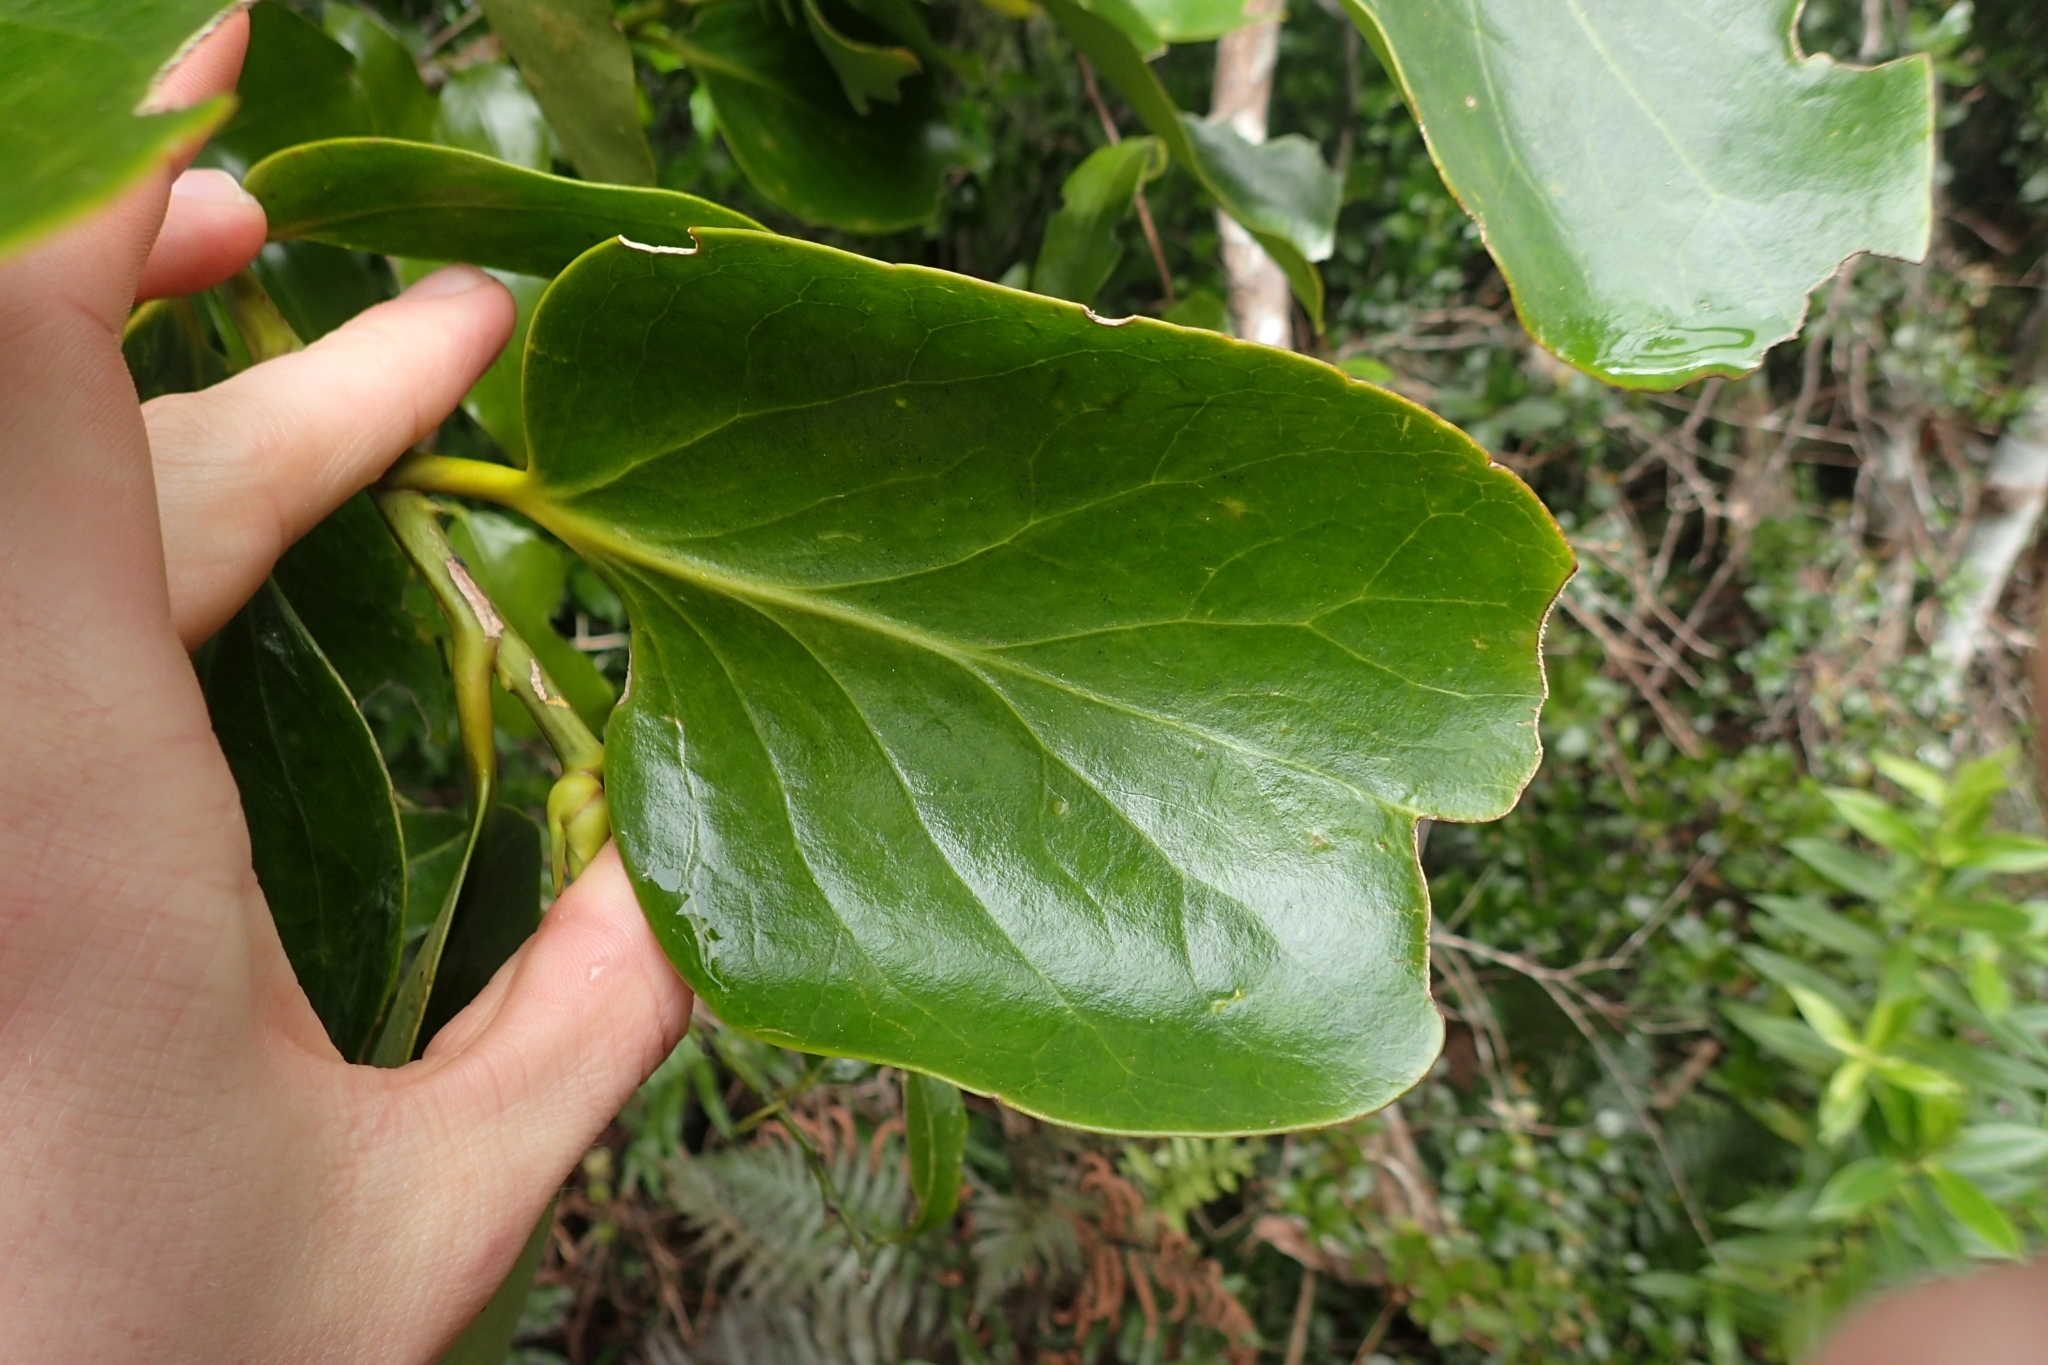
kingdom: Plantae
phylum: Tracheophyta
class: Magnoliopsida
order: Apiales
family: Griseliniaceae
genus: Griselinia
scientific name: Griselinia lucida
